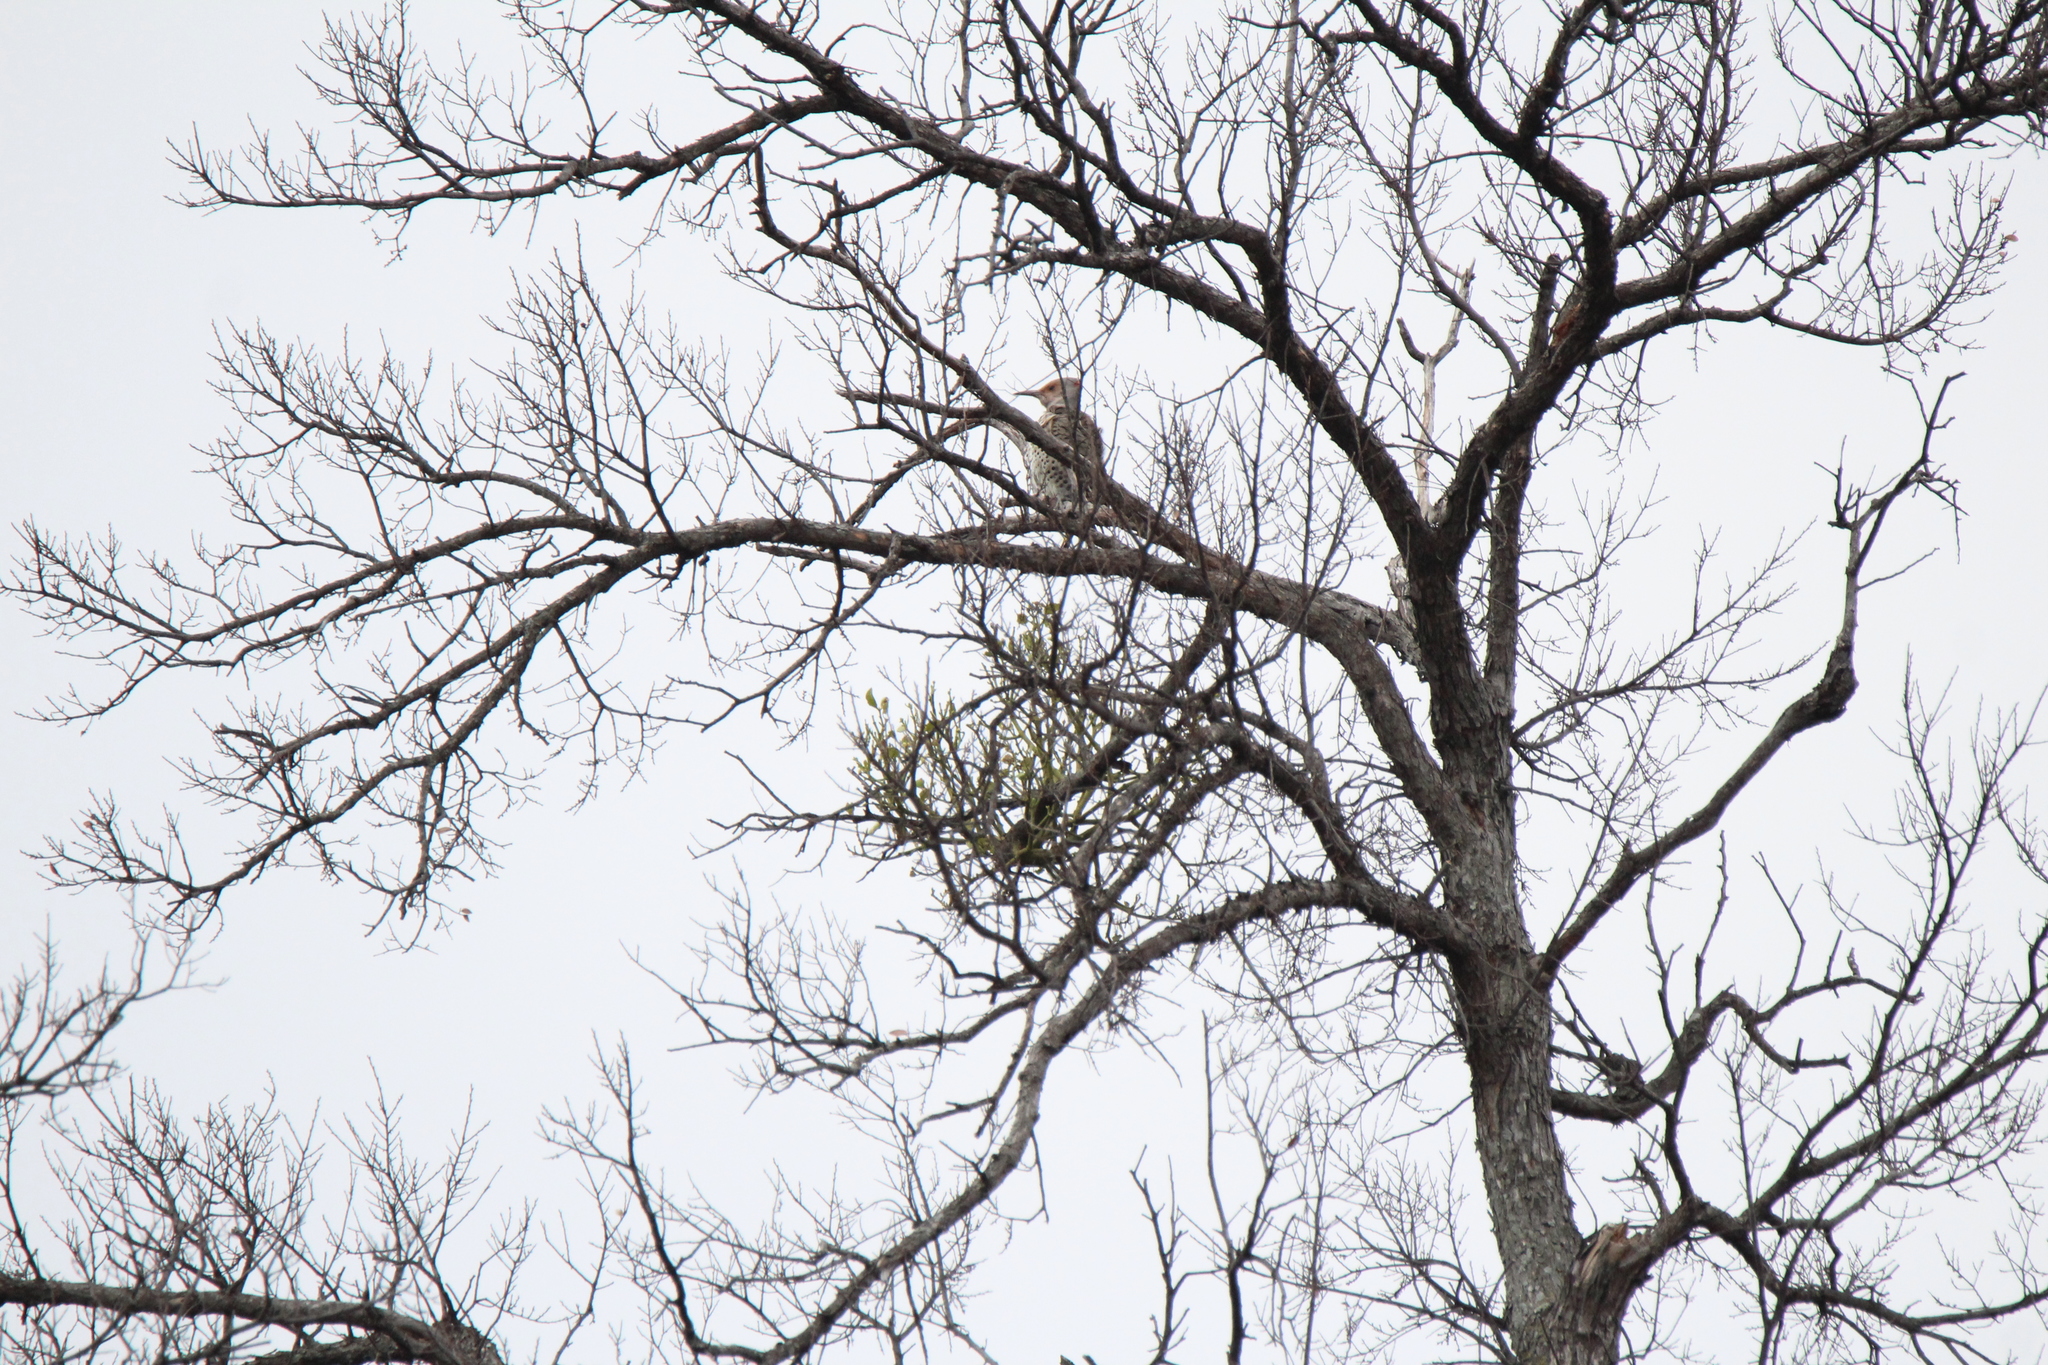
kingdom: Animalia
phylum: Chordata
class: Aves
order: Piciformes
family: Picidae
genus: Colaptes
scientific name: Colaptes auratus
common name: Northern flicker
